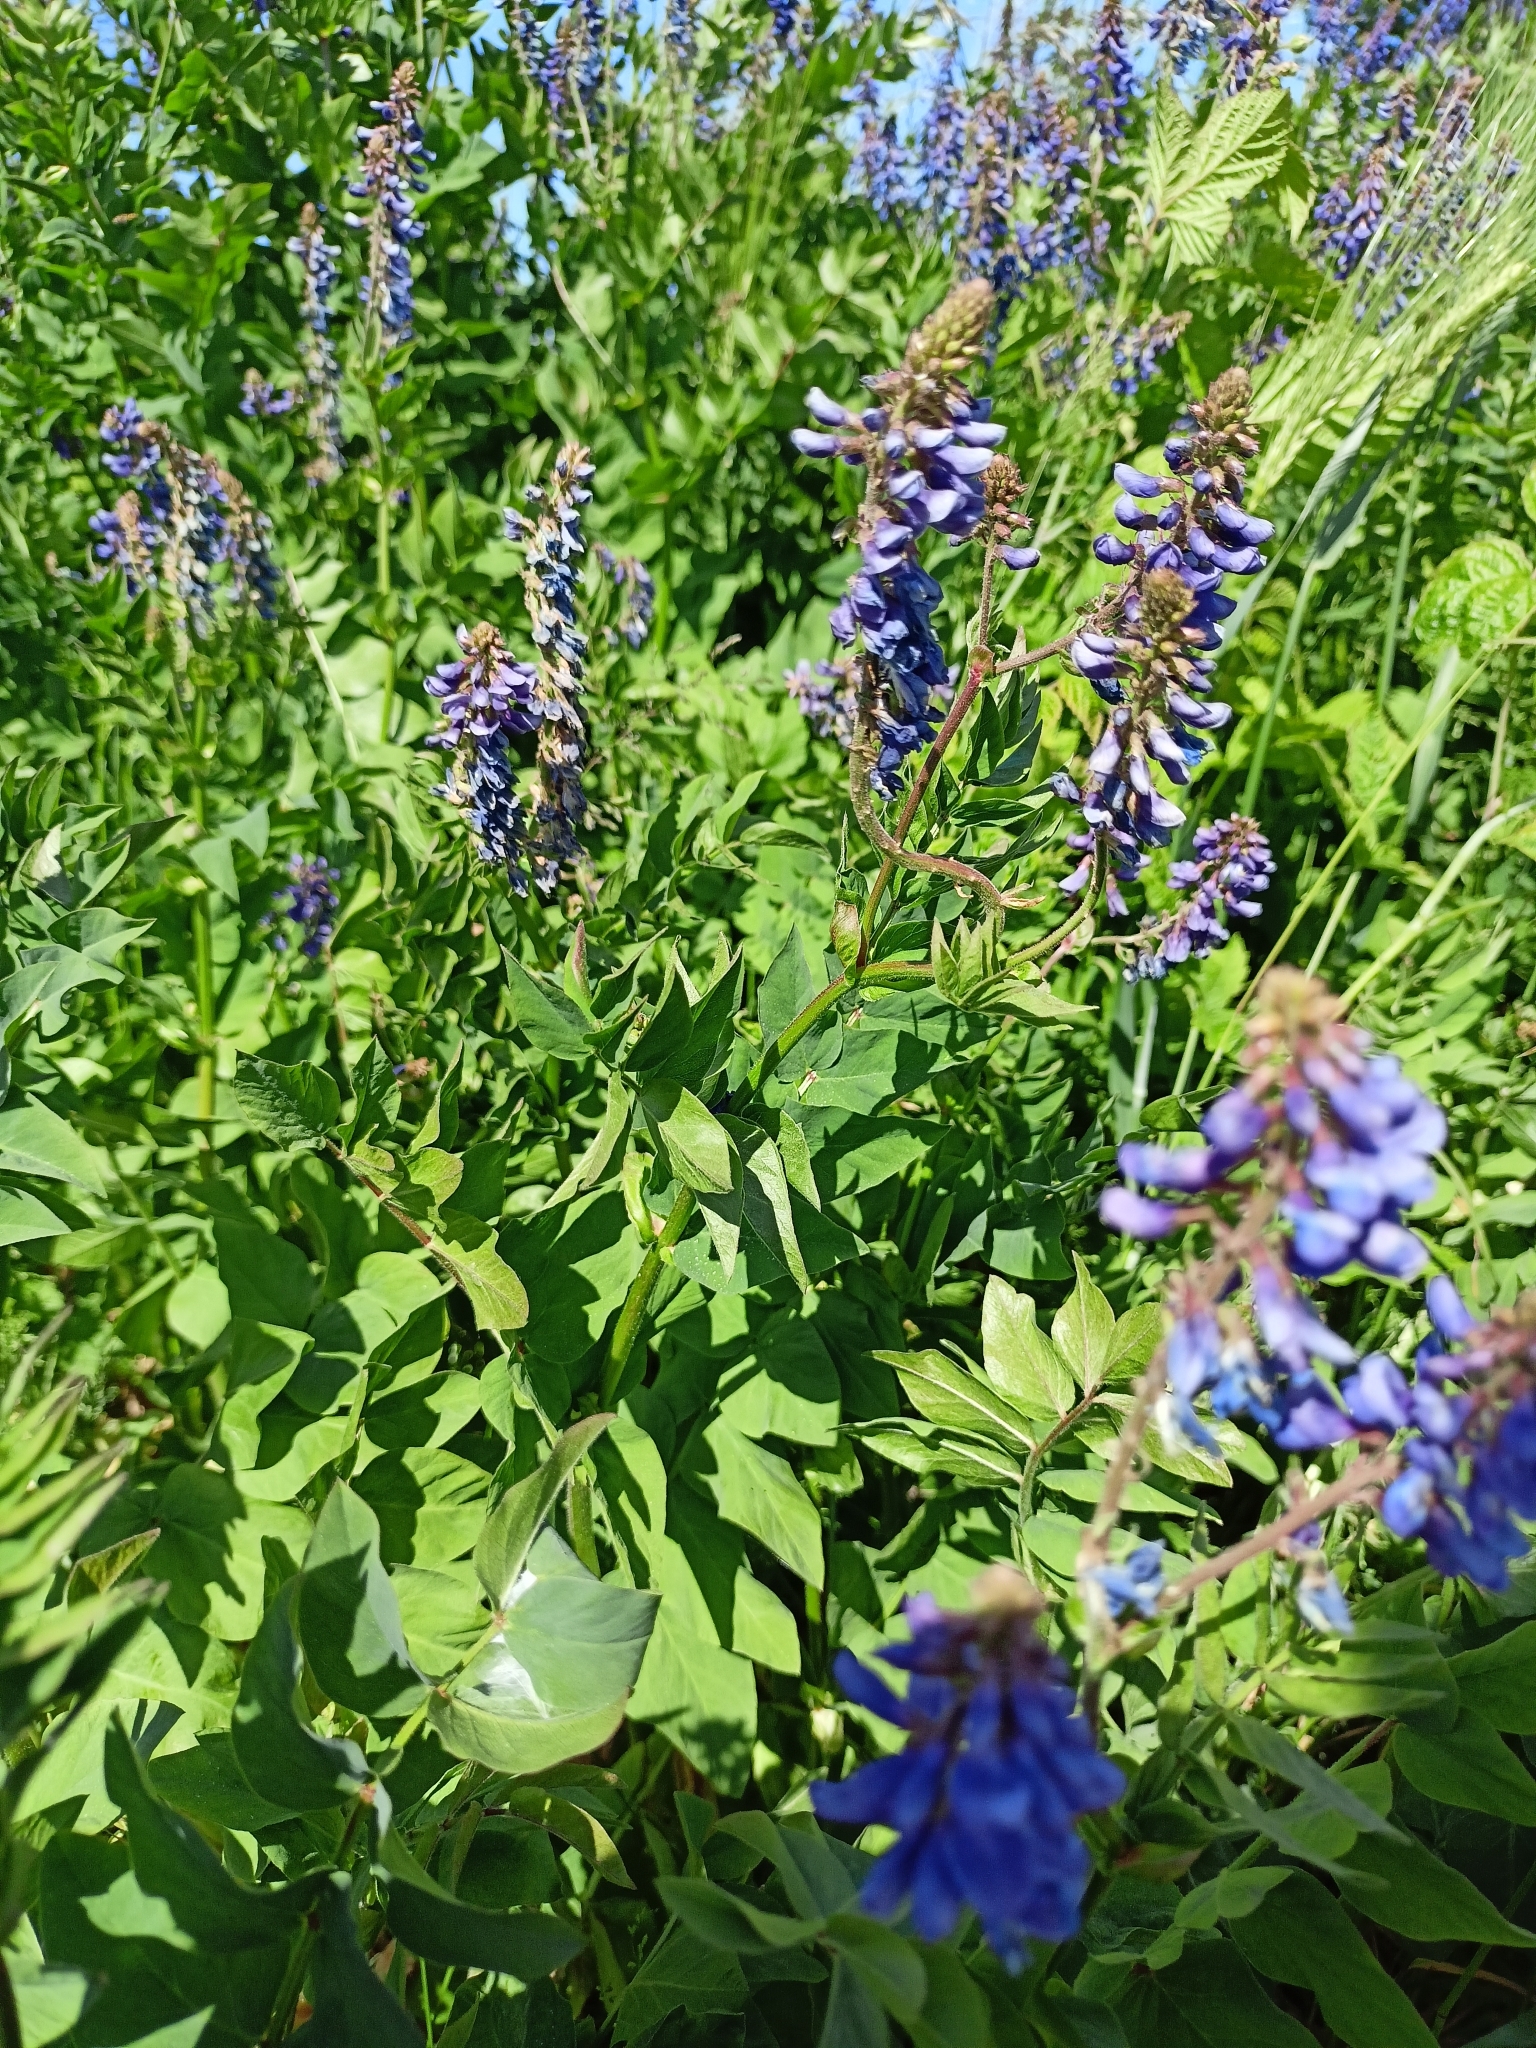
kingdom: Plantae
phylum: Tracheophyta
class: Magnoliopsida
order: Fabales
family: Fabaceae
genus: Galega
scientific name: Galega orientalis
